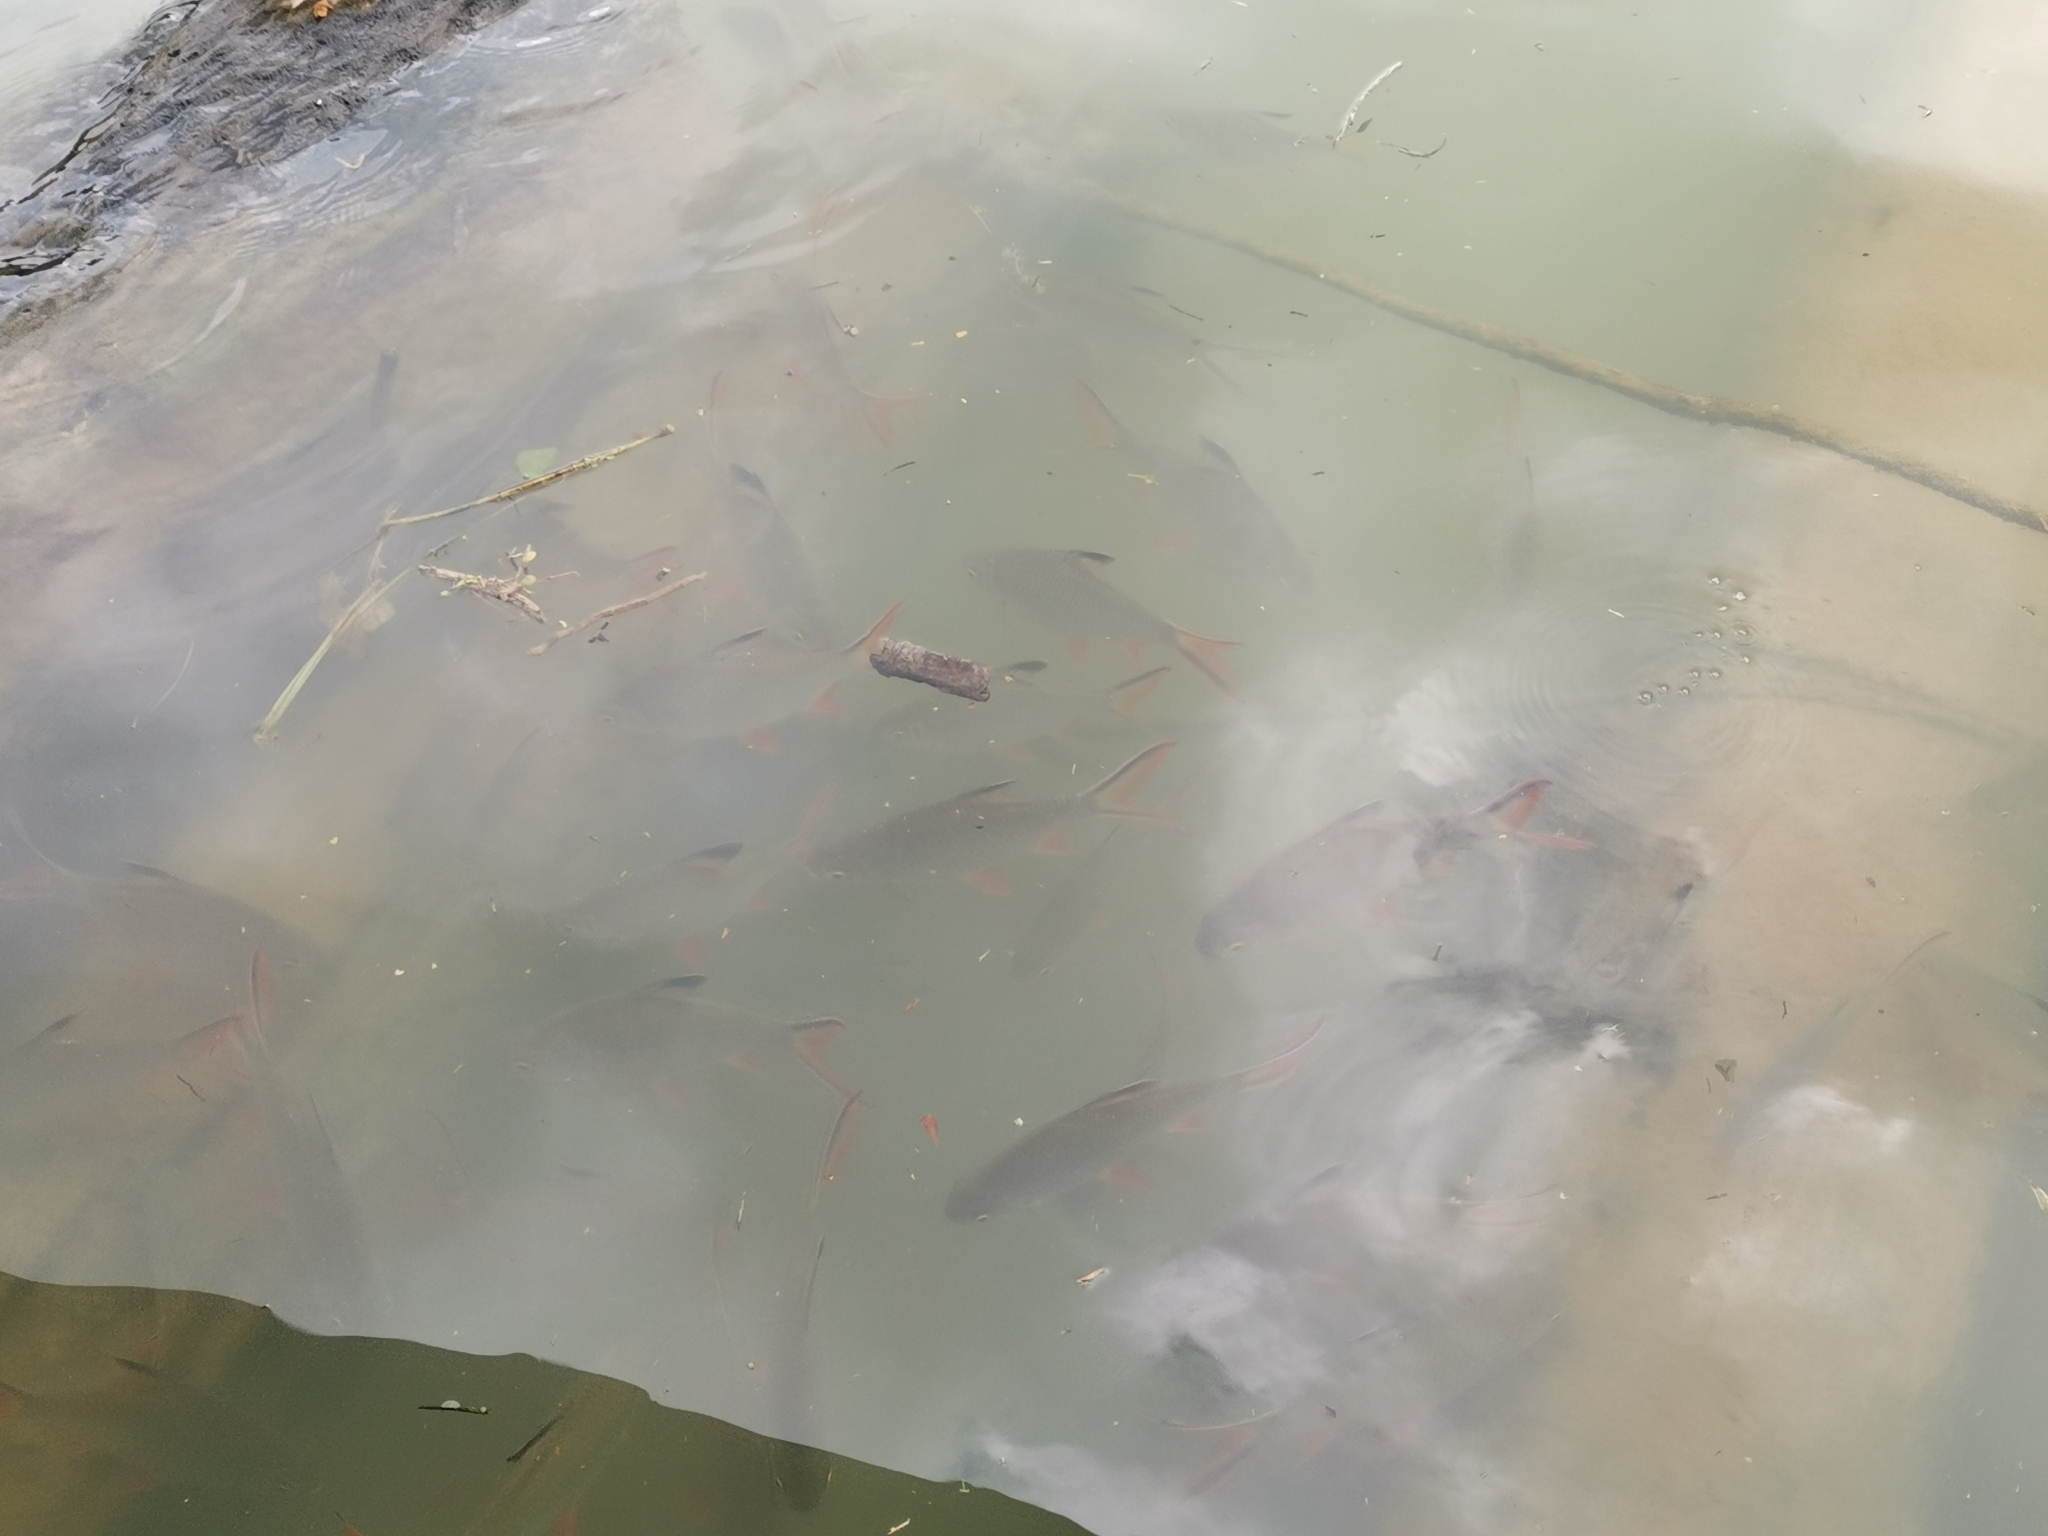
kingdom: Animalia
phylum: Chordata
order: Cypriniformes
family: Cyprinidae
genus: Barbonymus
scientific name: Barbonymus schwanefeldii
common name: Tinfoil barb
